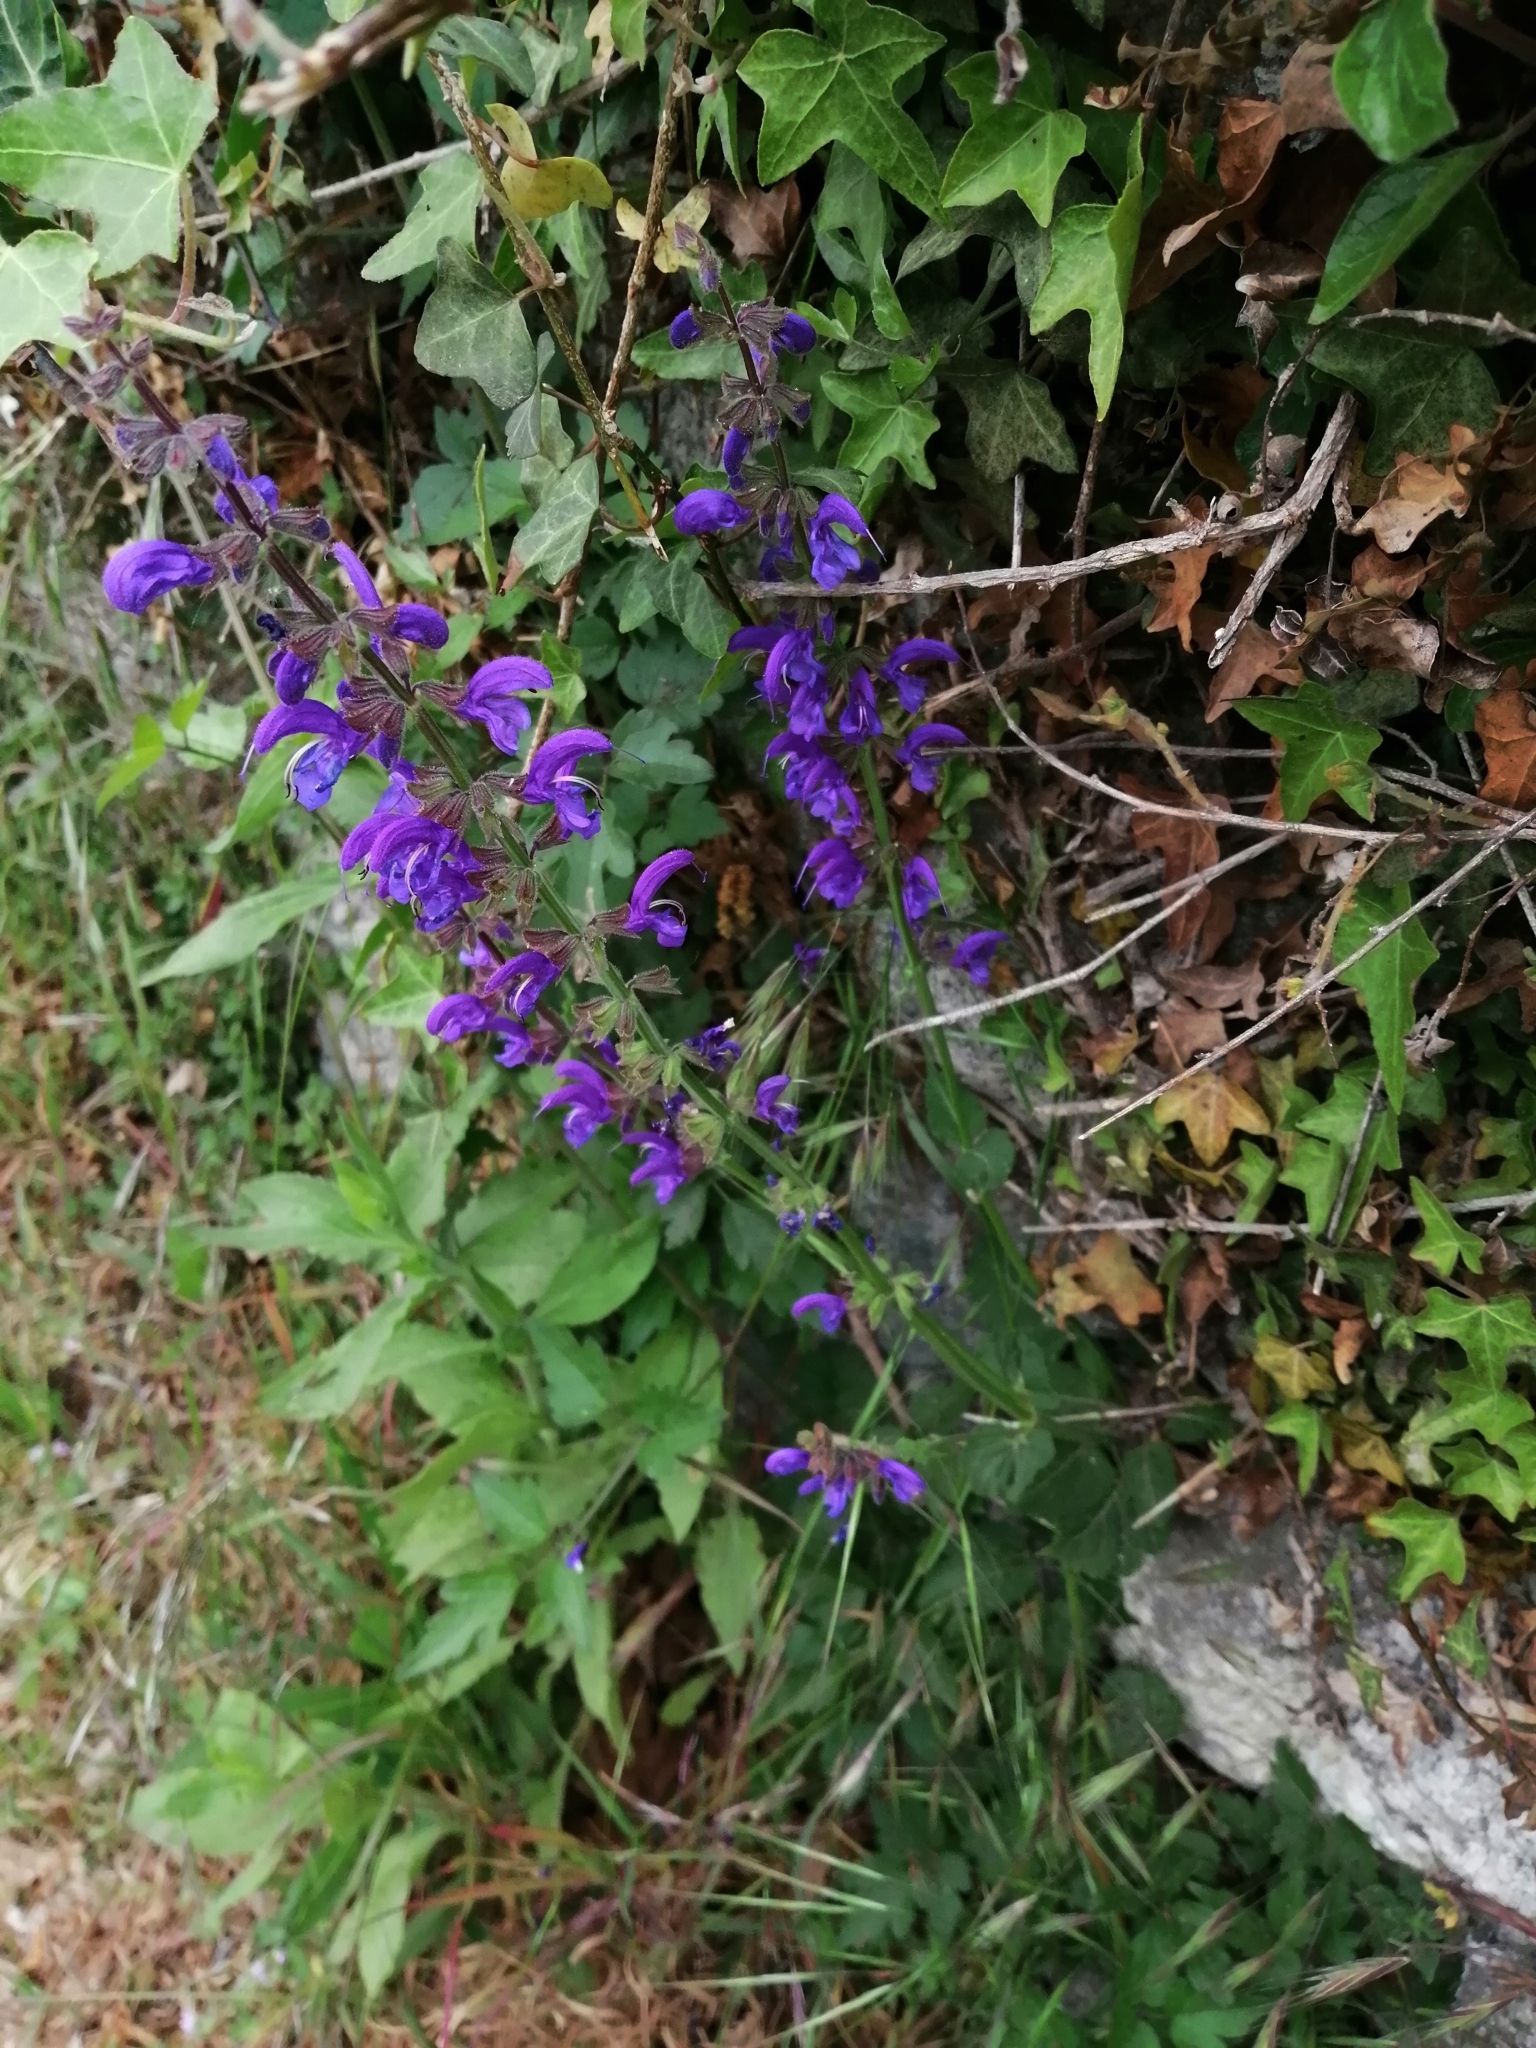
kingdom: Plantae
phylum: Tracheophyta
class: Magnoliopsida
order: Lamiales
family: Lamiaceae
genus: Salvia
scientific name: Salvia pratensis
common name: Meadow sage
